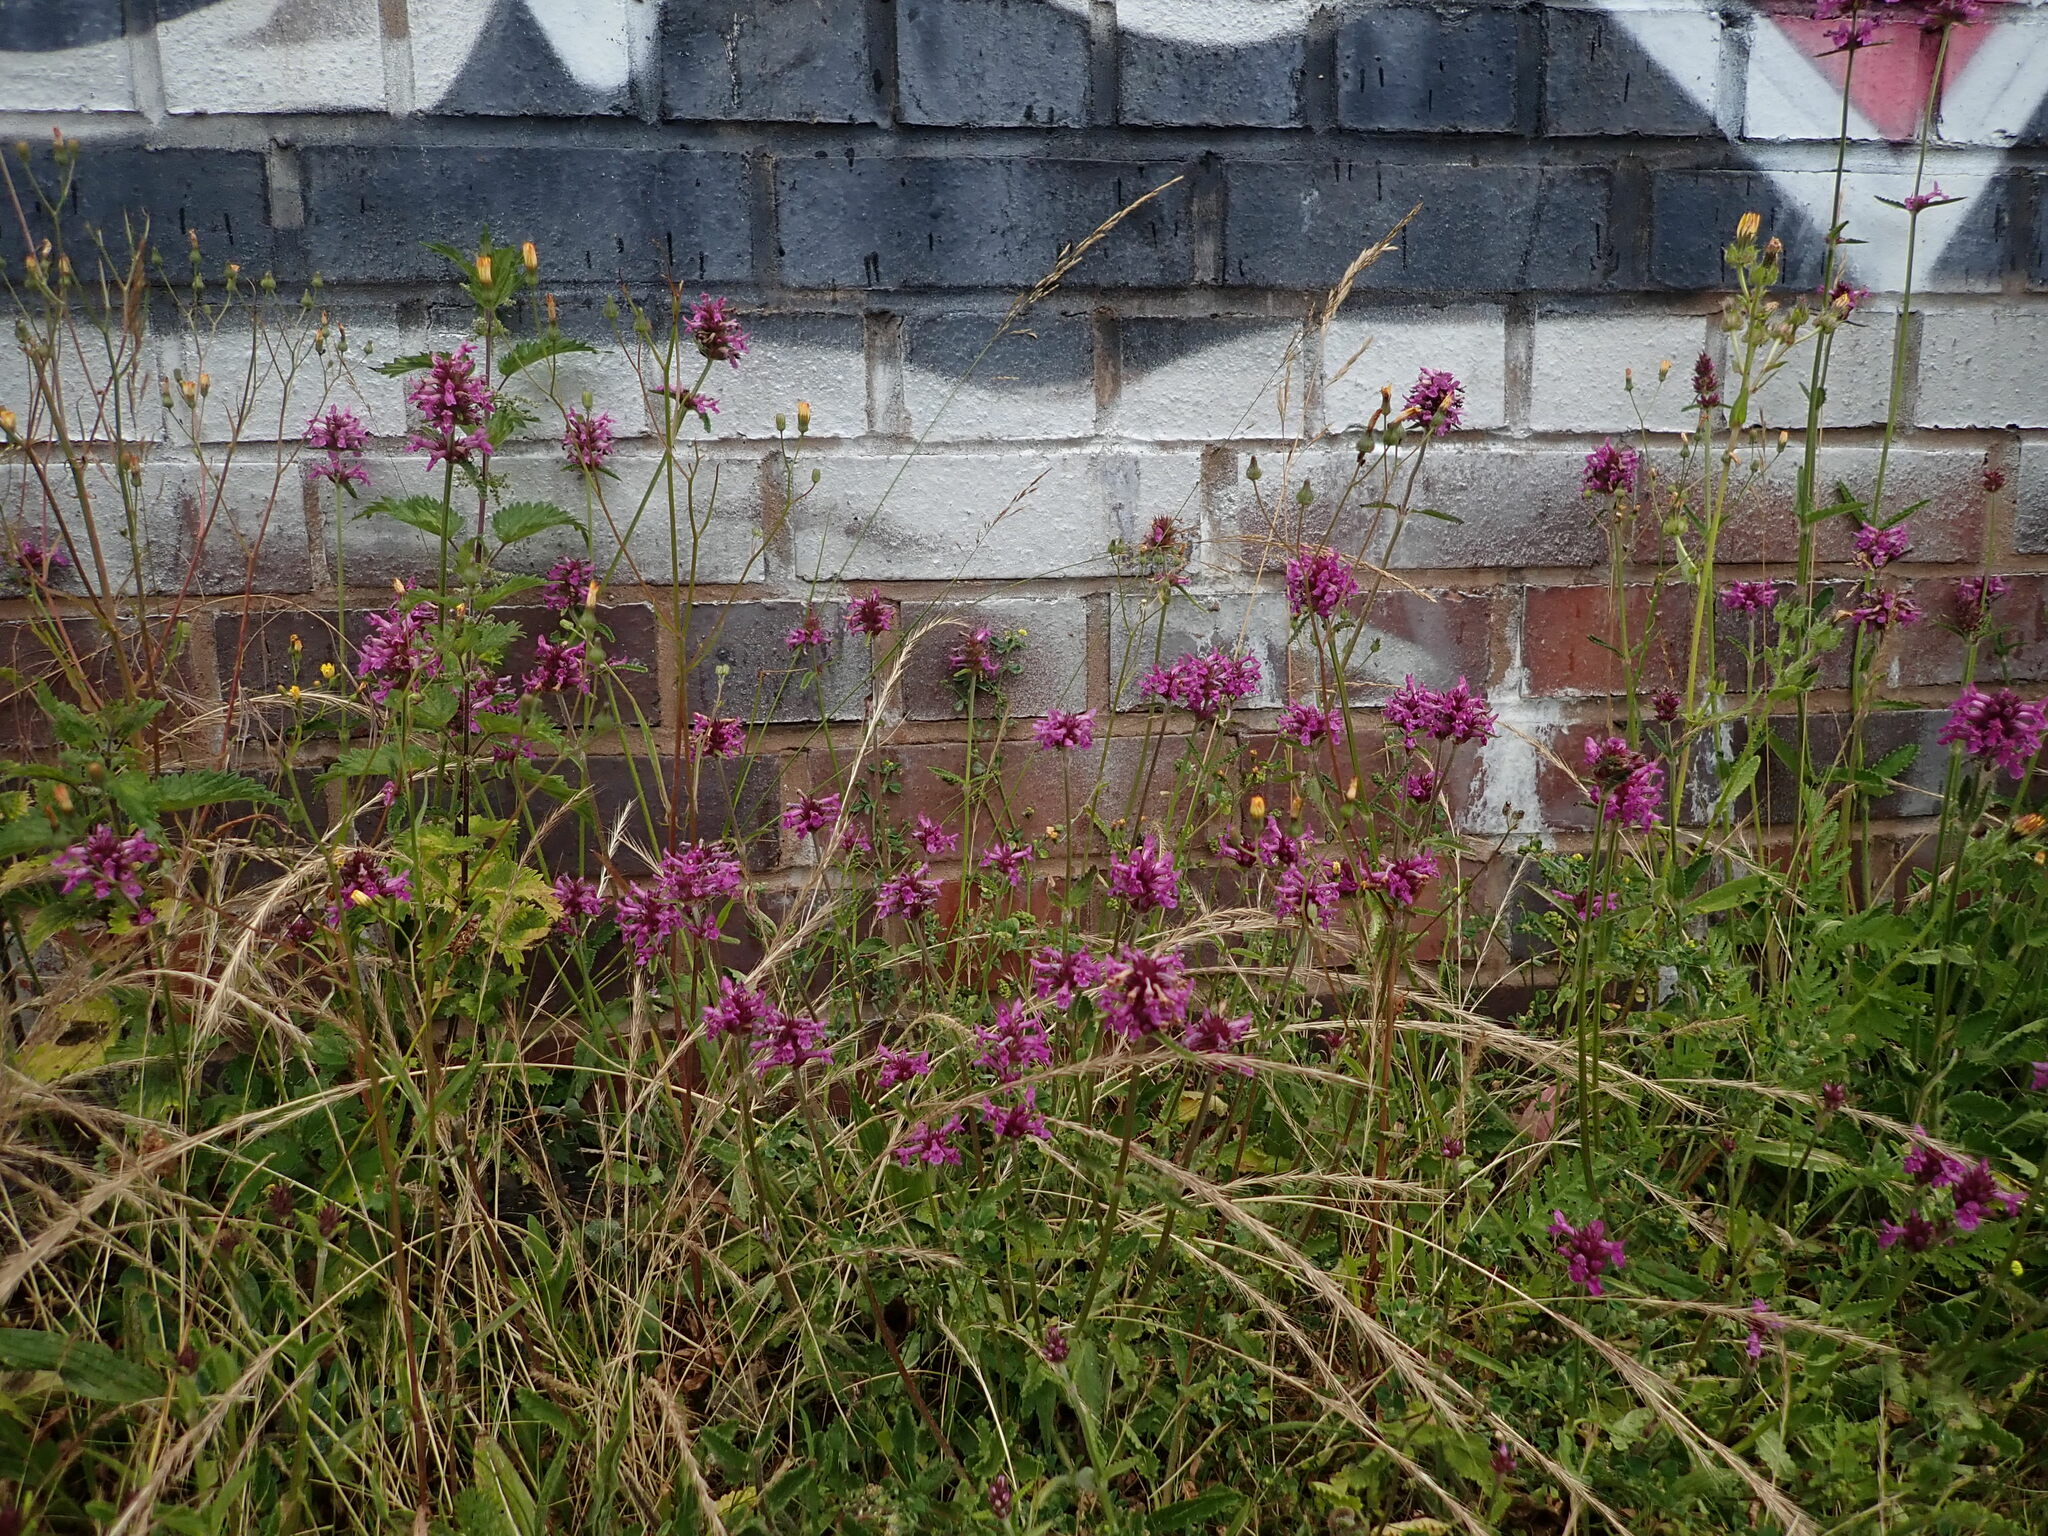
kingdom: Plantae
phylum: Tracheophyta
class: Magnoliopsida
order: Lamiales
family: Lamiaceae
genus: Betonica
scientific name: Betonica officinalis
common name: Bishop's-wort
